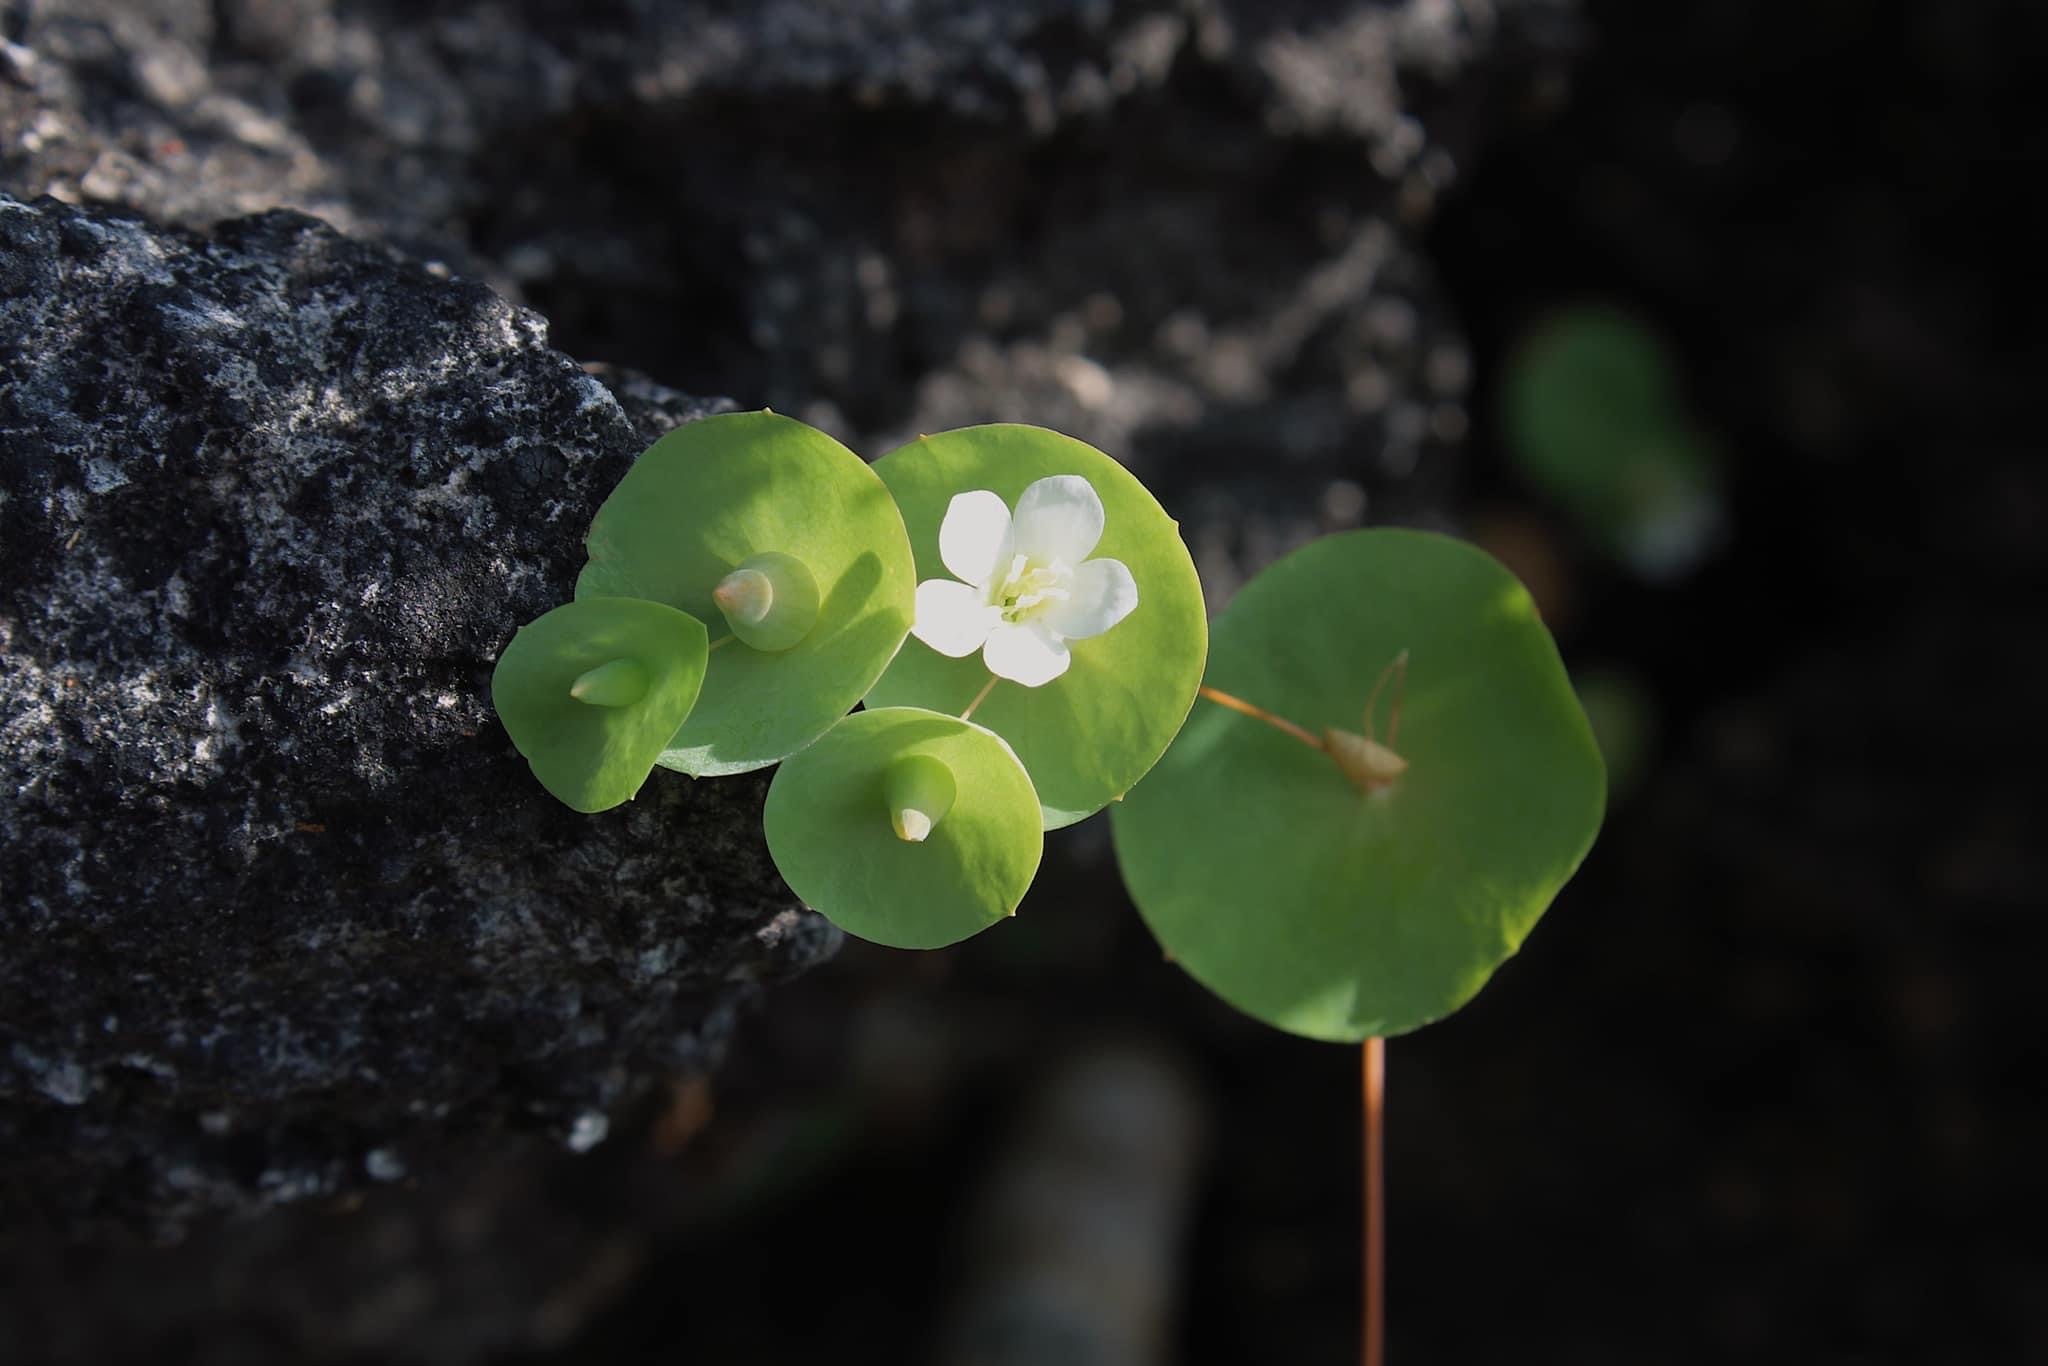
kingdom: Plantae
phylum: Tracheophyta
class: Magnoliopsida
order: Gentianales
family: Gentianaceae
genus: Phyllocyclus
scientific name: Phyllocyclus parishii
